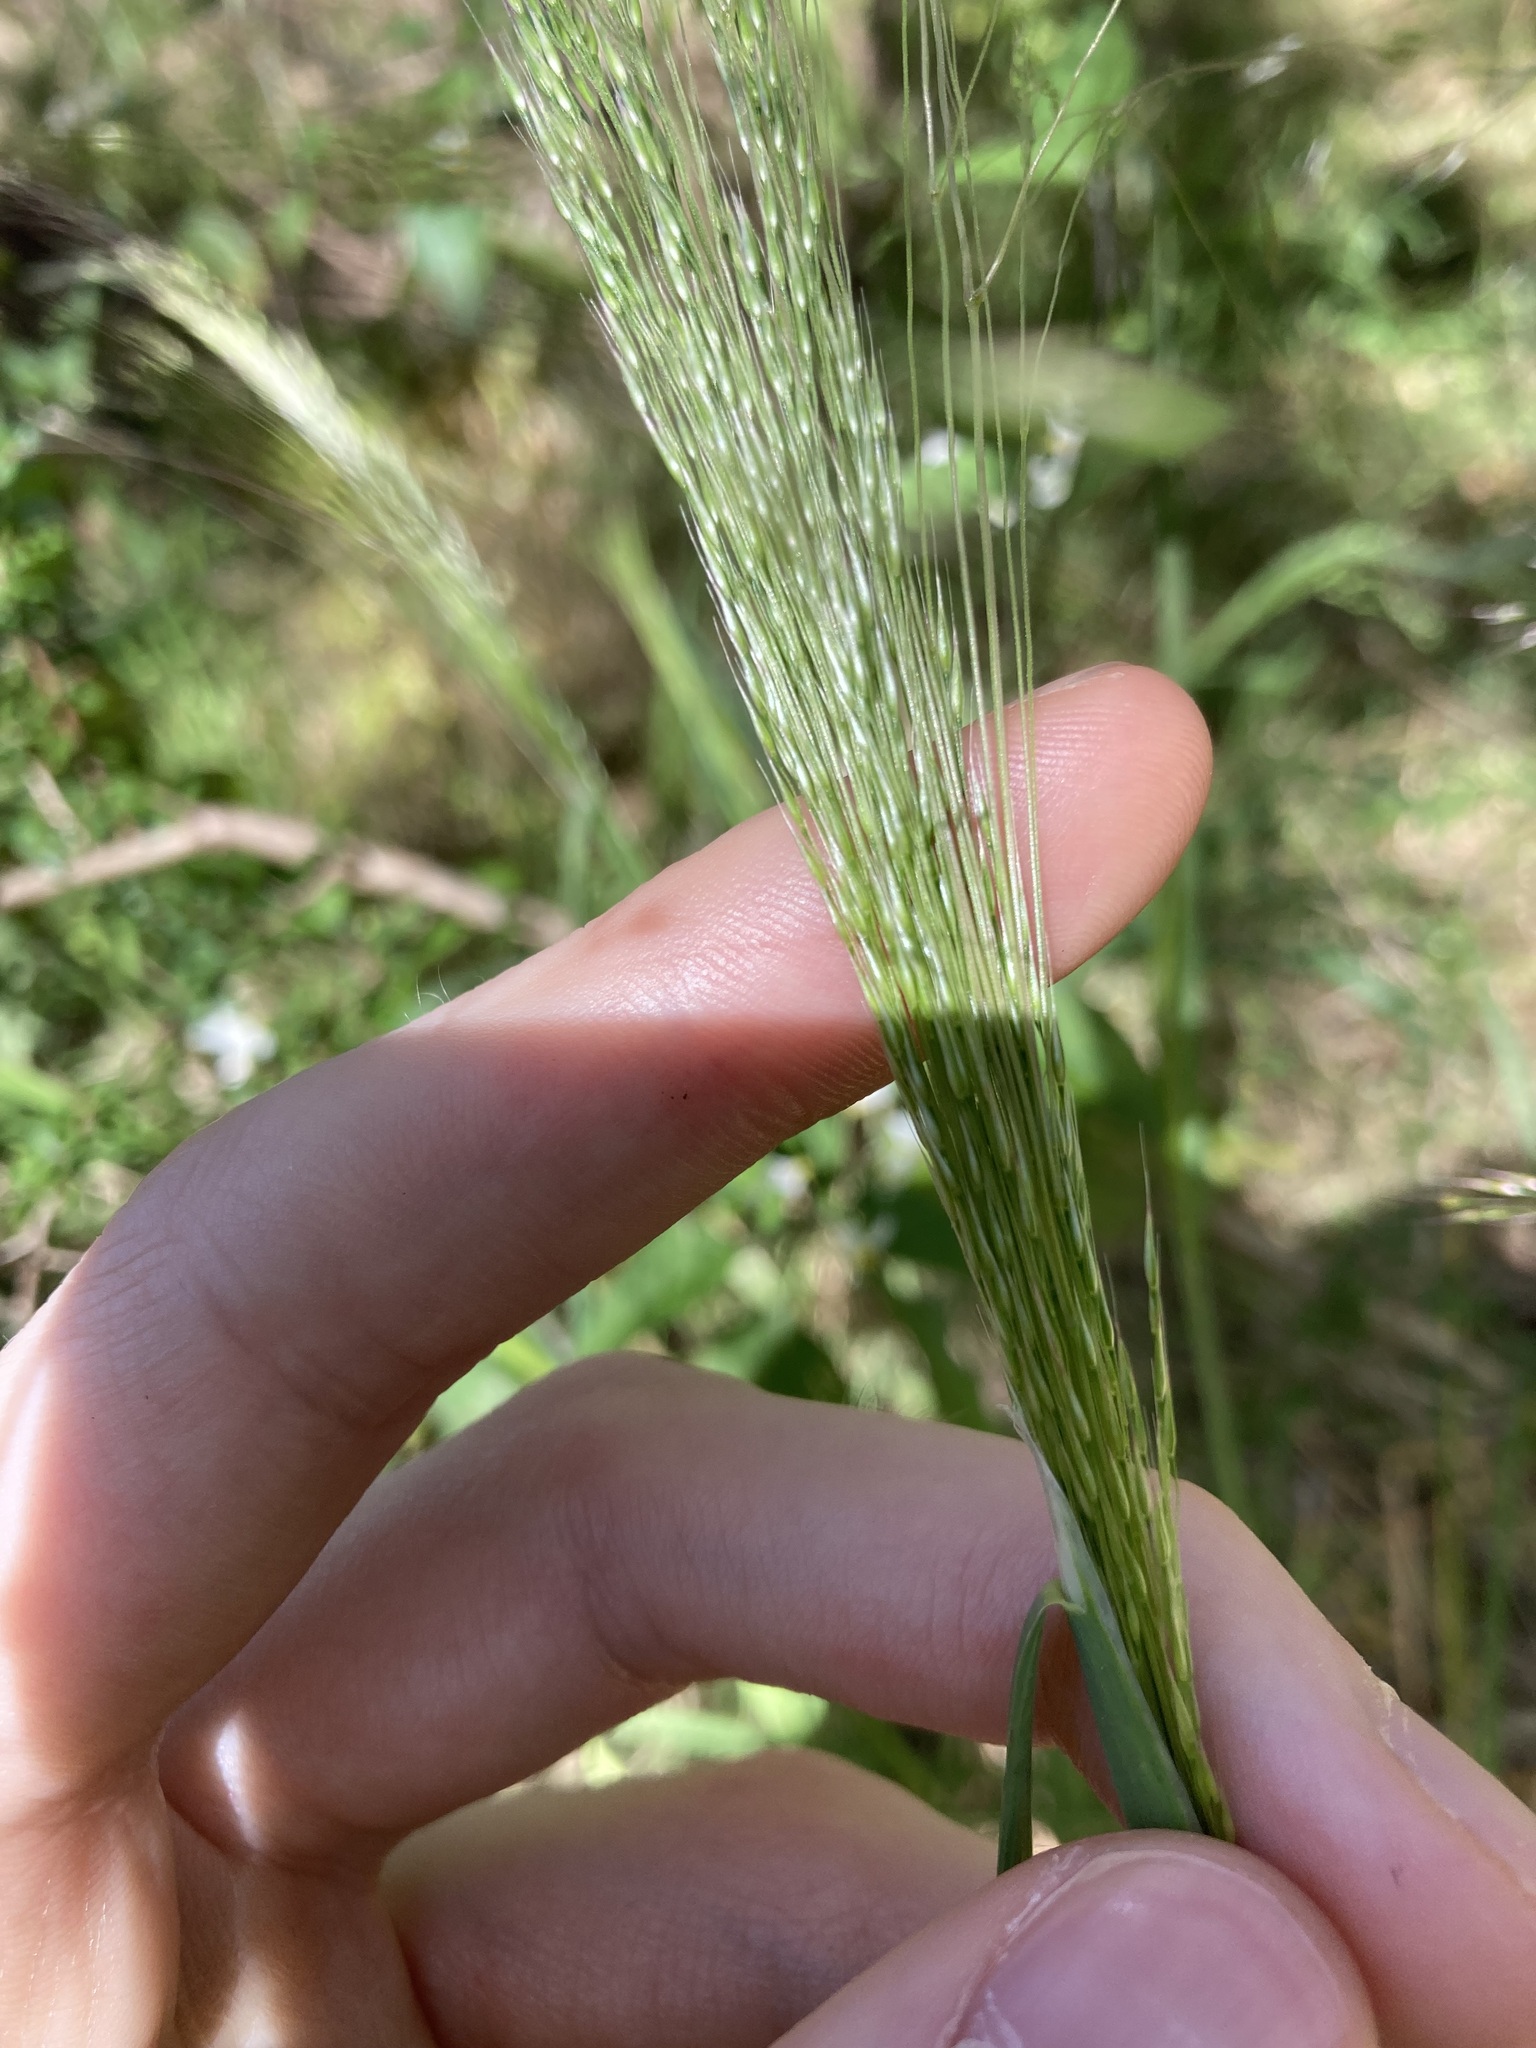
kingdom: Plantae
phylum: Tracheophyta
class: Liliopsida
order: Poales
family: Poaceae
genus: Lachnagrostis
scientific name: Lachnagrostis filiformis
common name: Bentgrass
